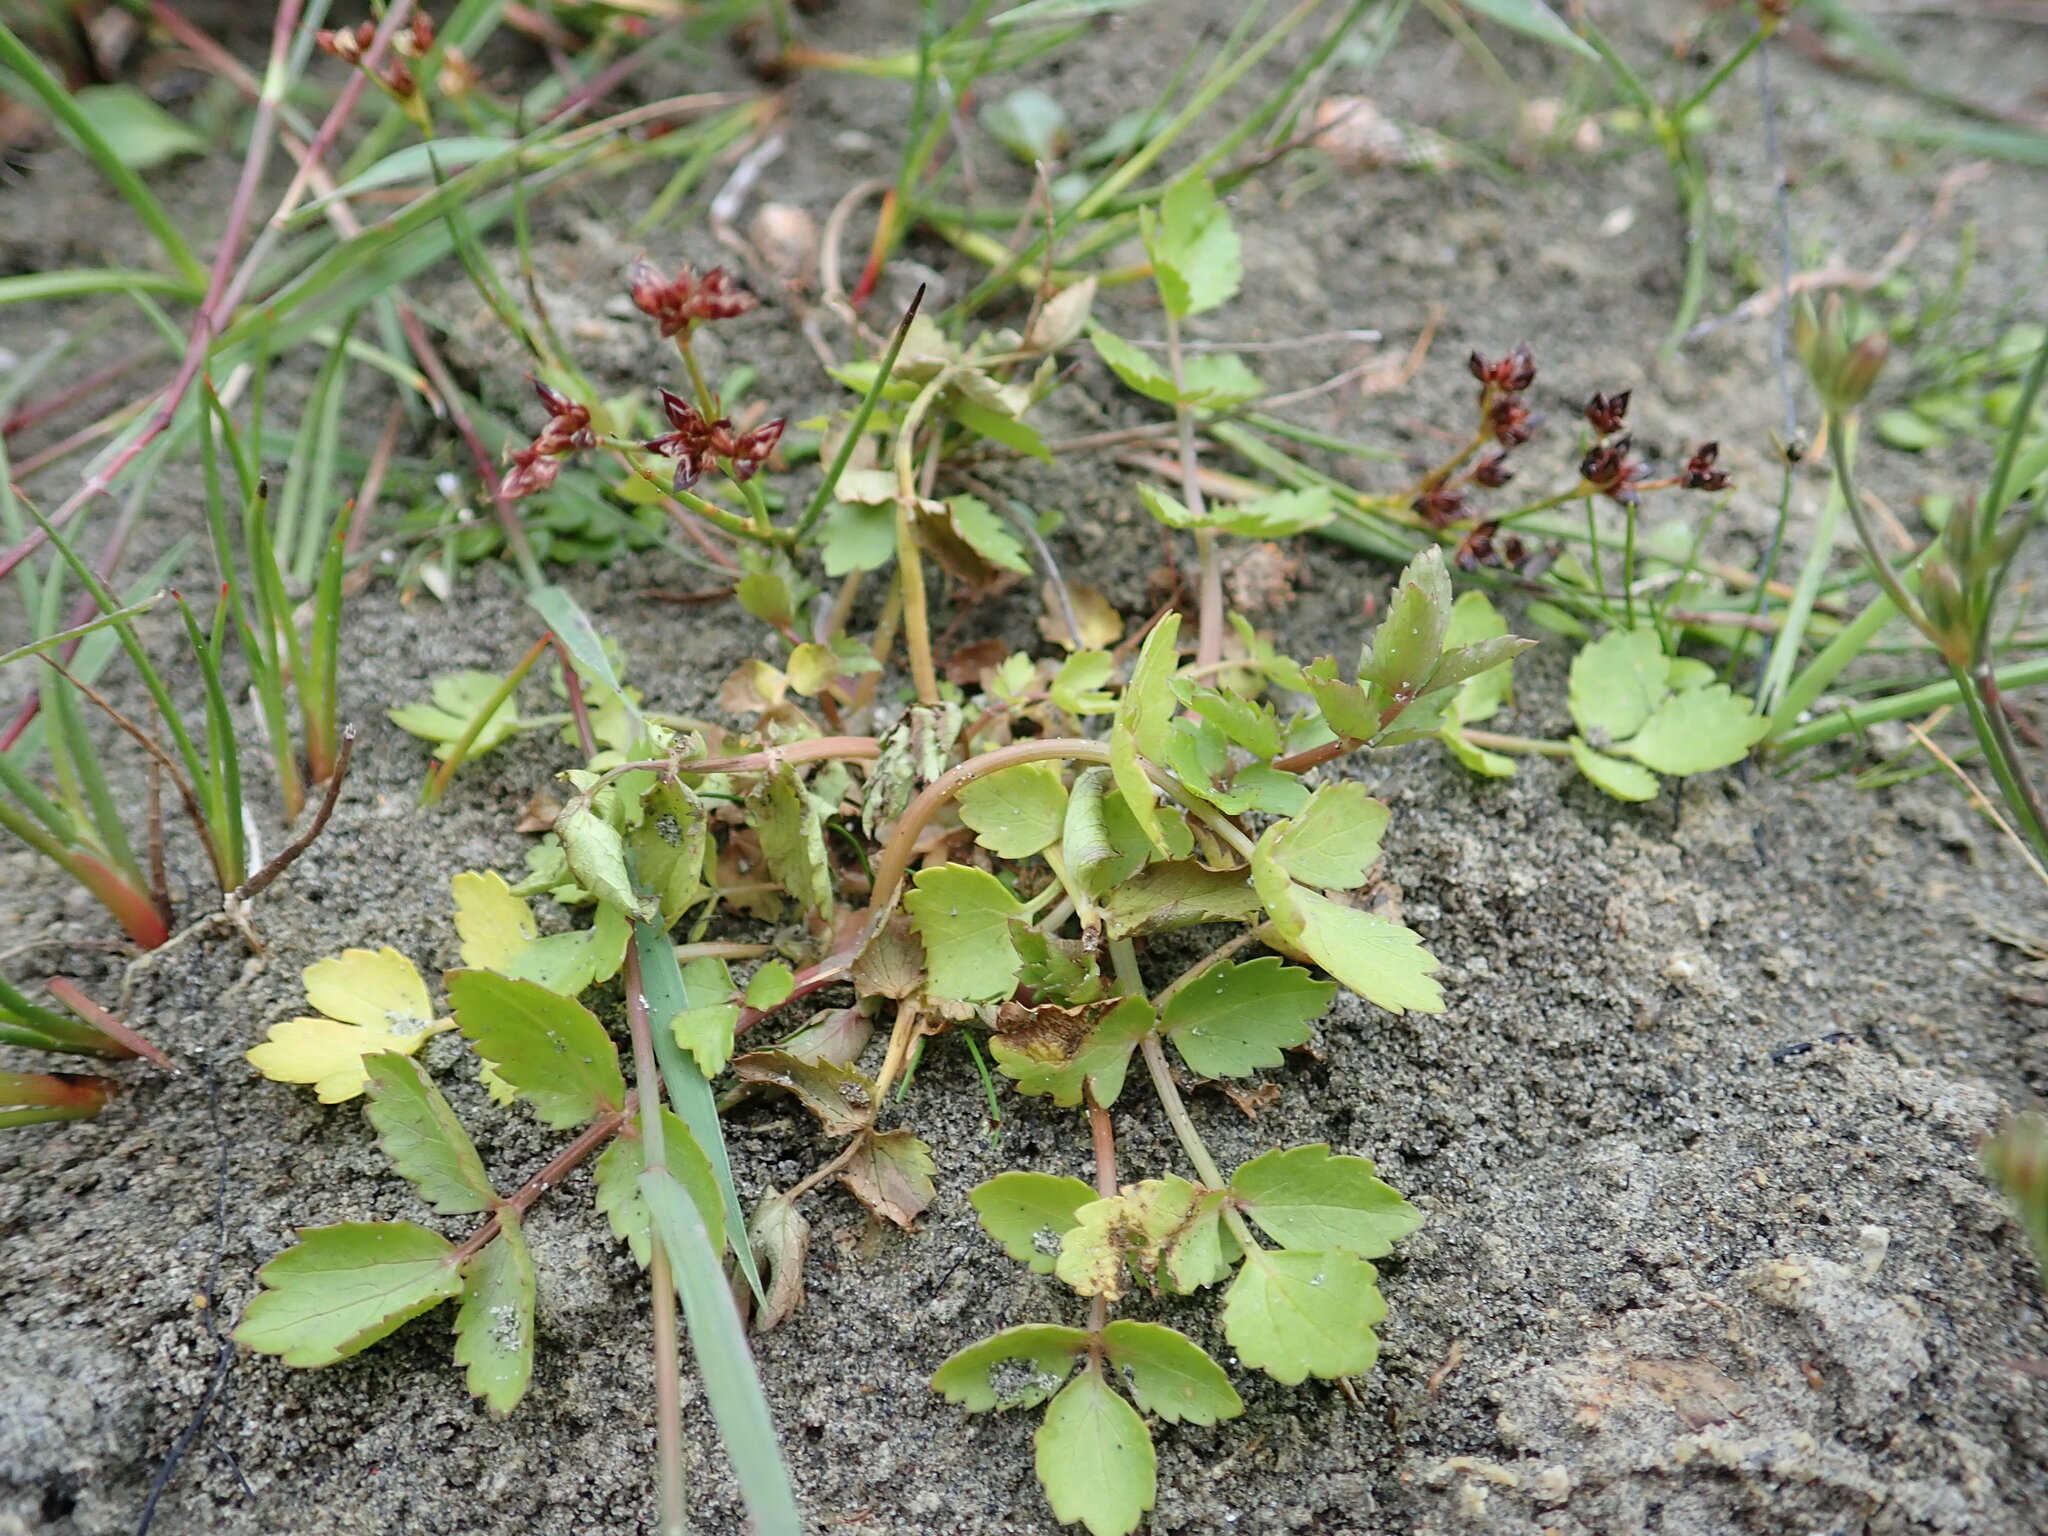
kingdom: Plantae
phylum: Tracheophyta
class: Magnoliopsida
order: Apiales
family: Apiaceae
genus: Helosciadium
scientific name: Helosciadium nodiflorum
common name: Fool's-watercress
